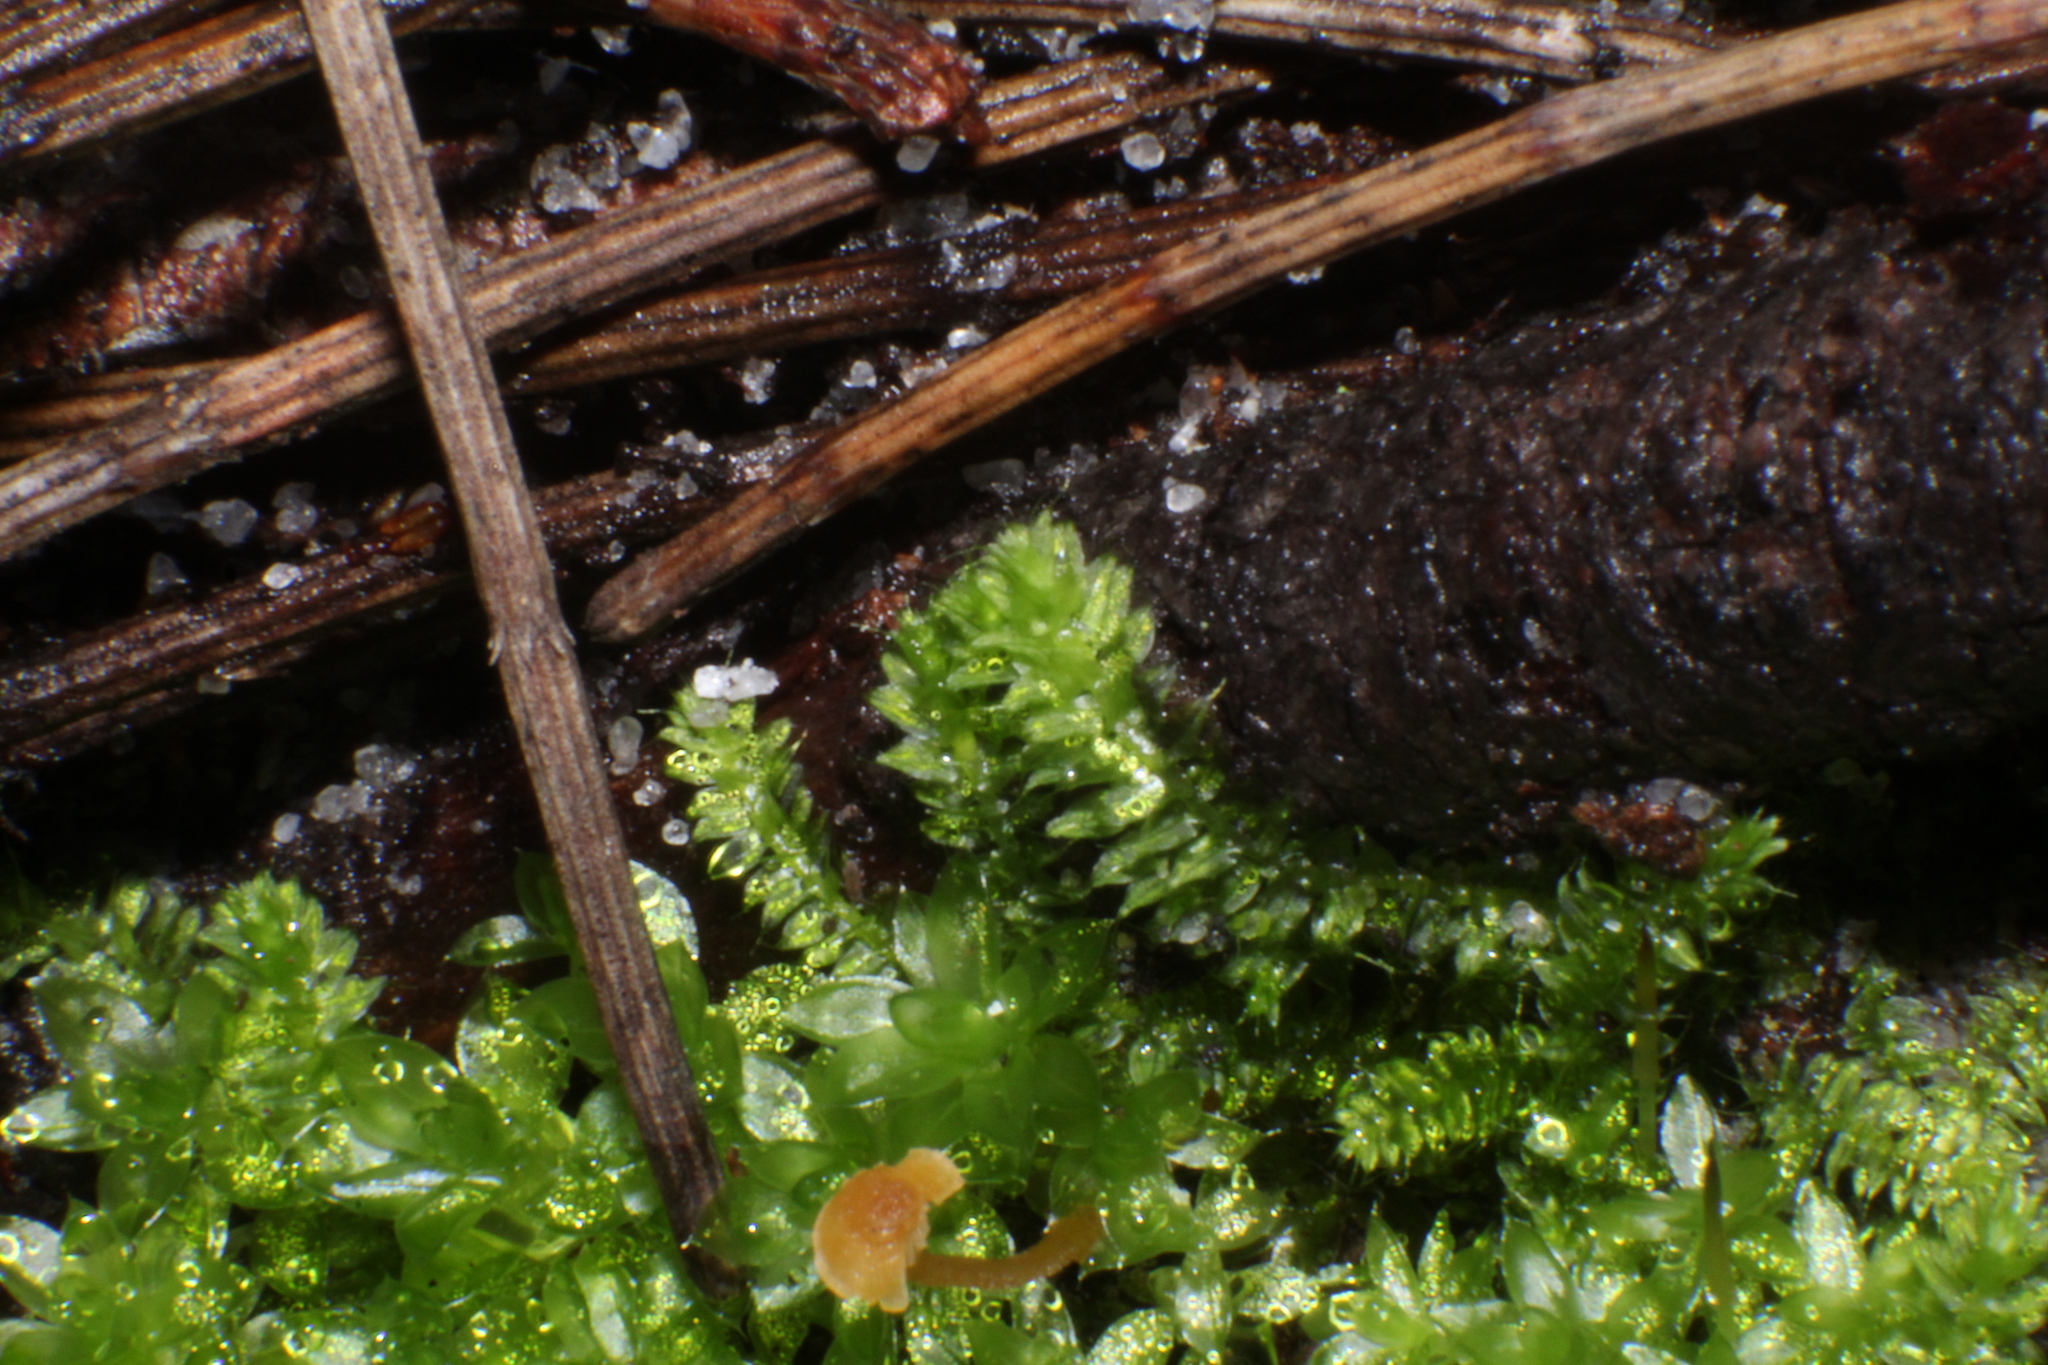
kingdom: Plantae
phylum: Bryophyta
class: Bryopsida
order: Hypnodendrales
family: Racopilaceae
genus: Racopilum
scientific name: Racopilum cuspidigerum
